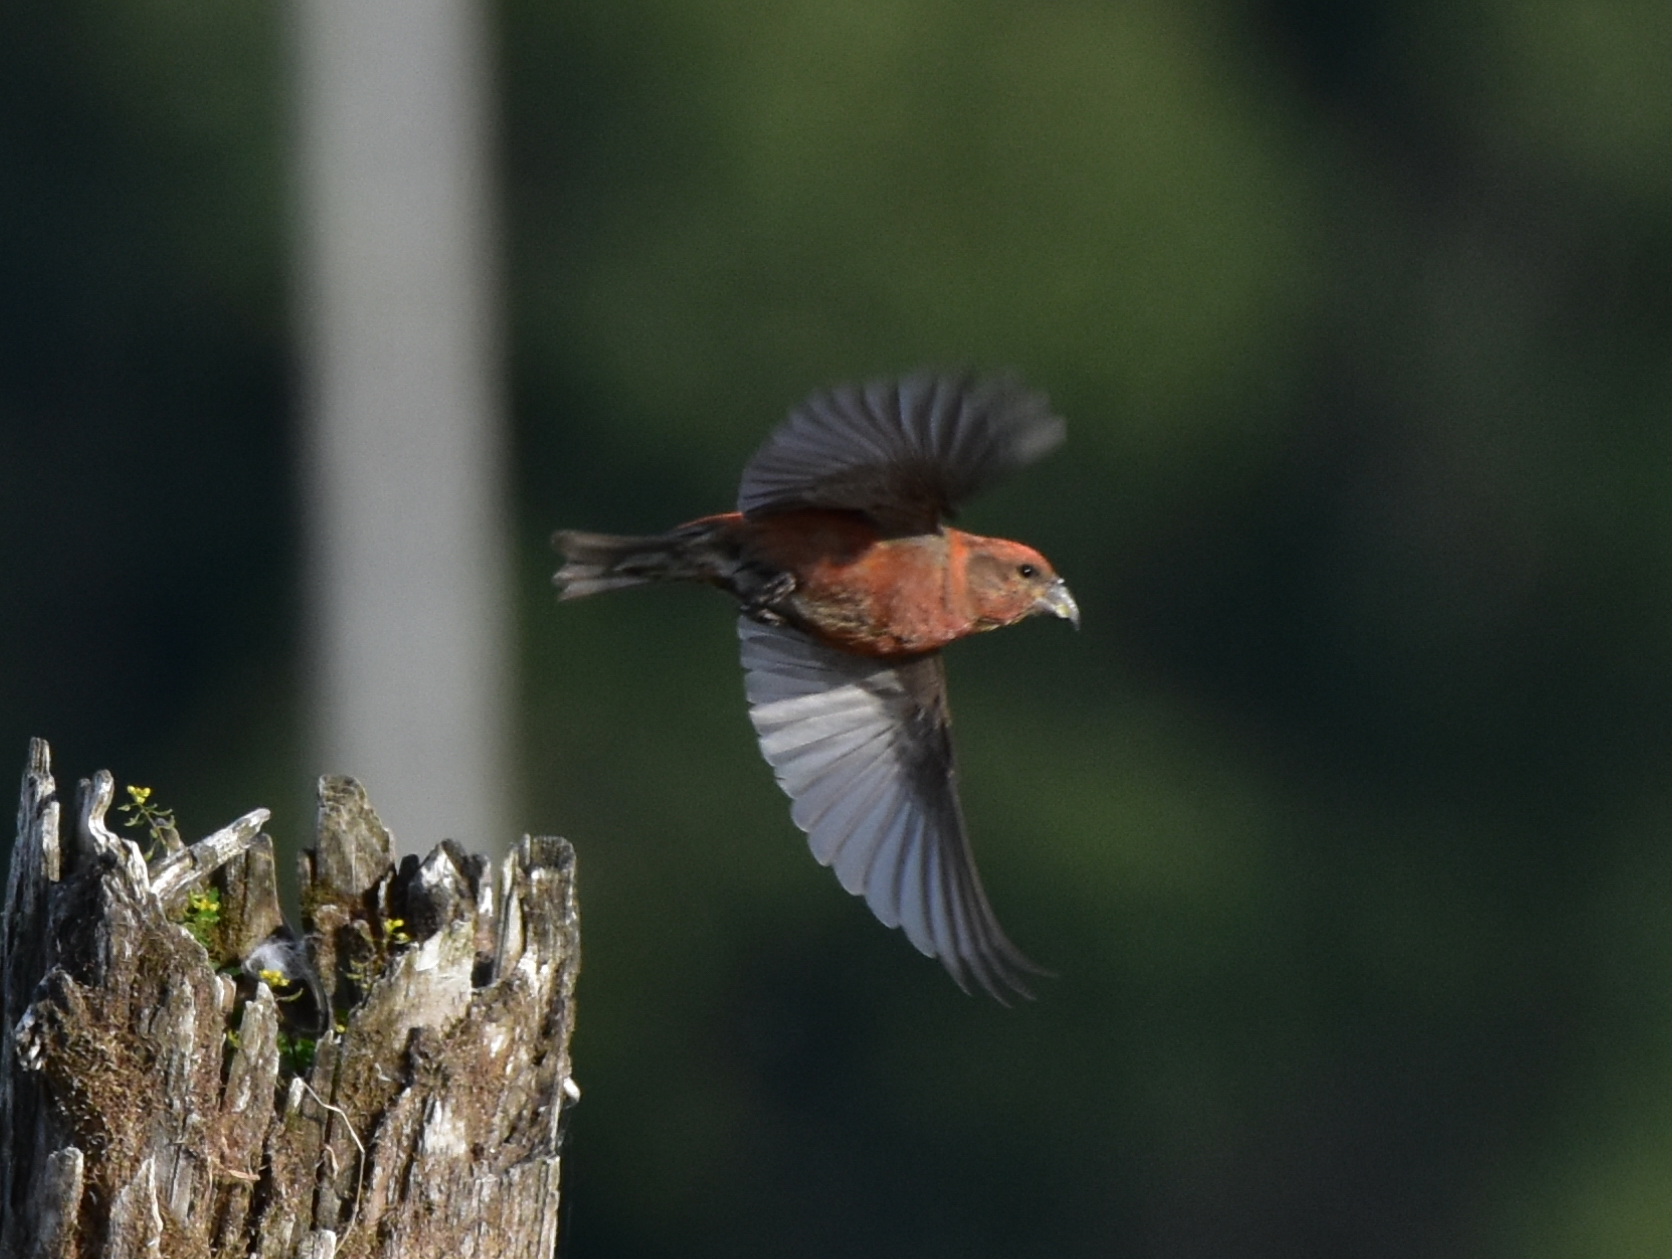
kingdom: Animalia
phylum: Chordata
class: Aves
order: Passeriformes
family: Fringillidae
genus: Loxia
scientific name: Loxia curvirostra
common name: Red crossbill
